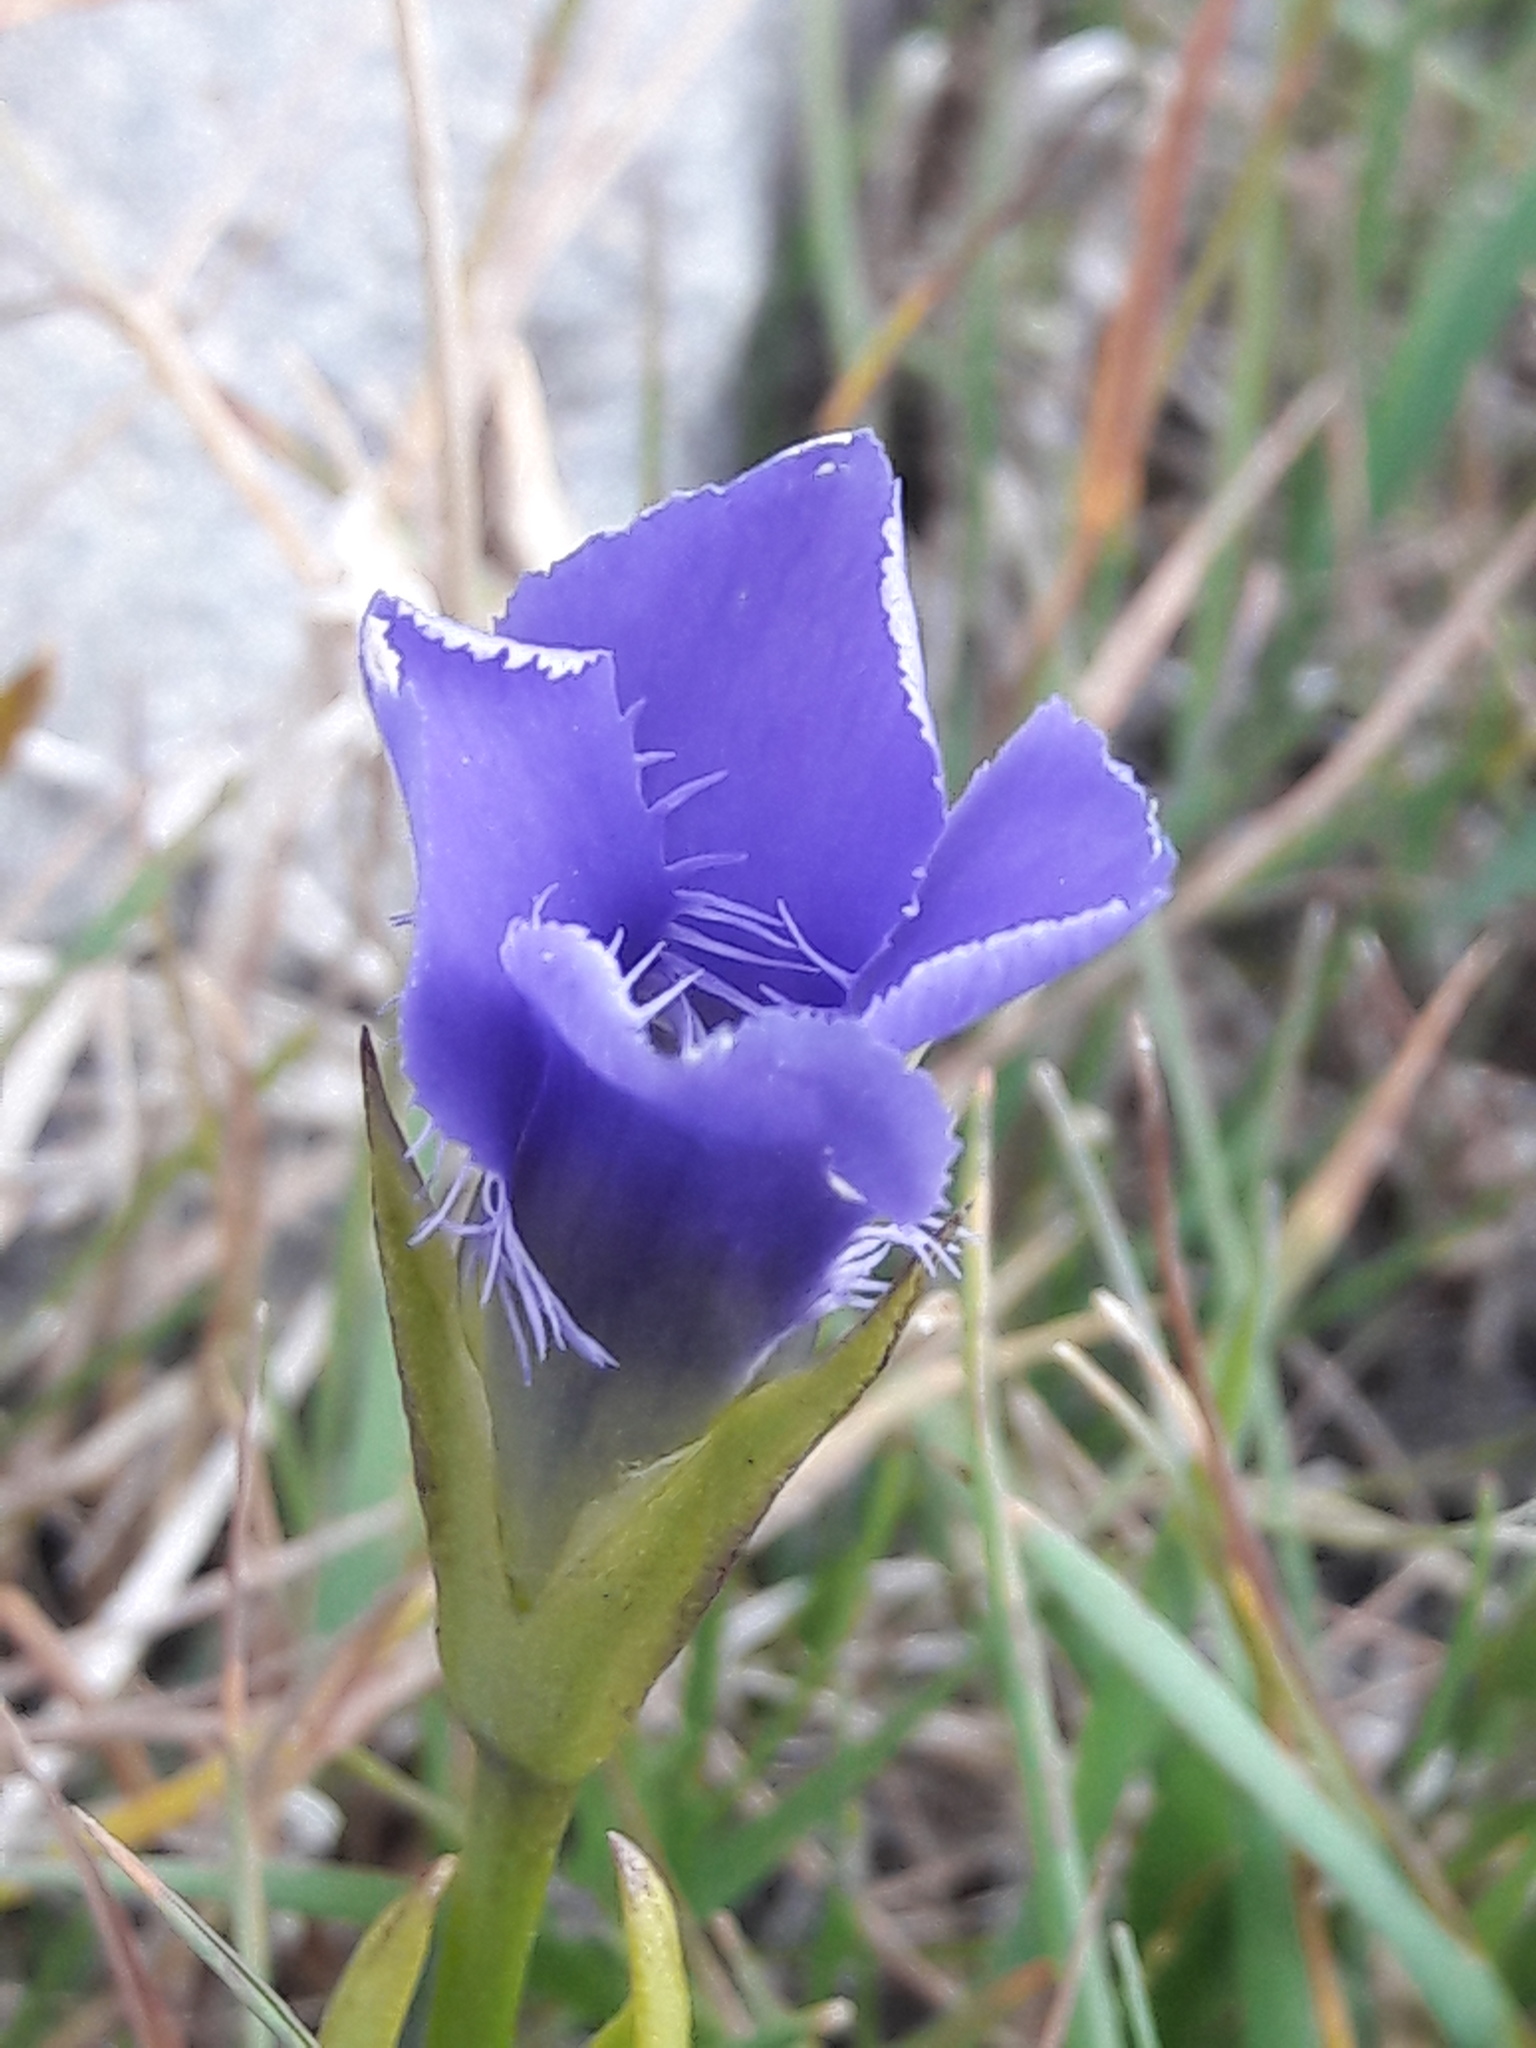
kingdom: Plantae
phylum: Tracheophyta
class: Magnoliopsida
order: Gentianales
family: Gentianaceae
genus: Gentianopsis
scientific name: Gentianopsis ciliata
